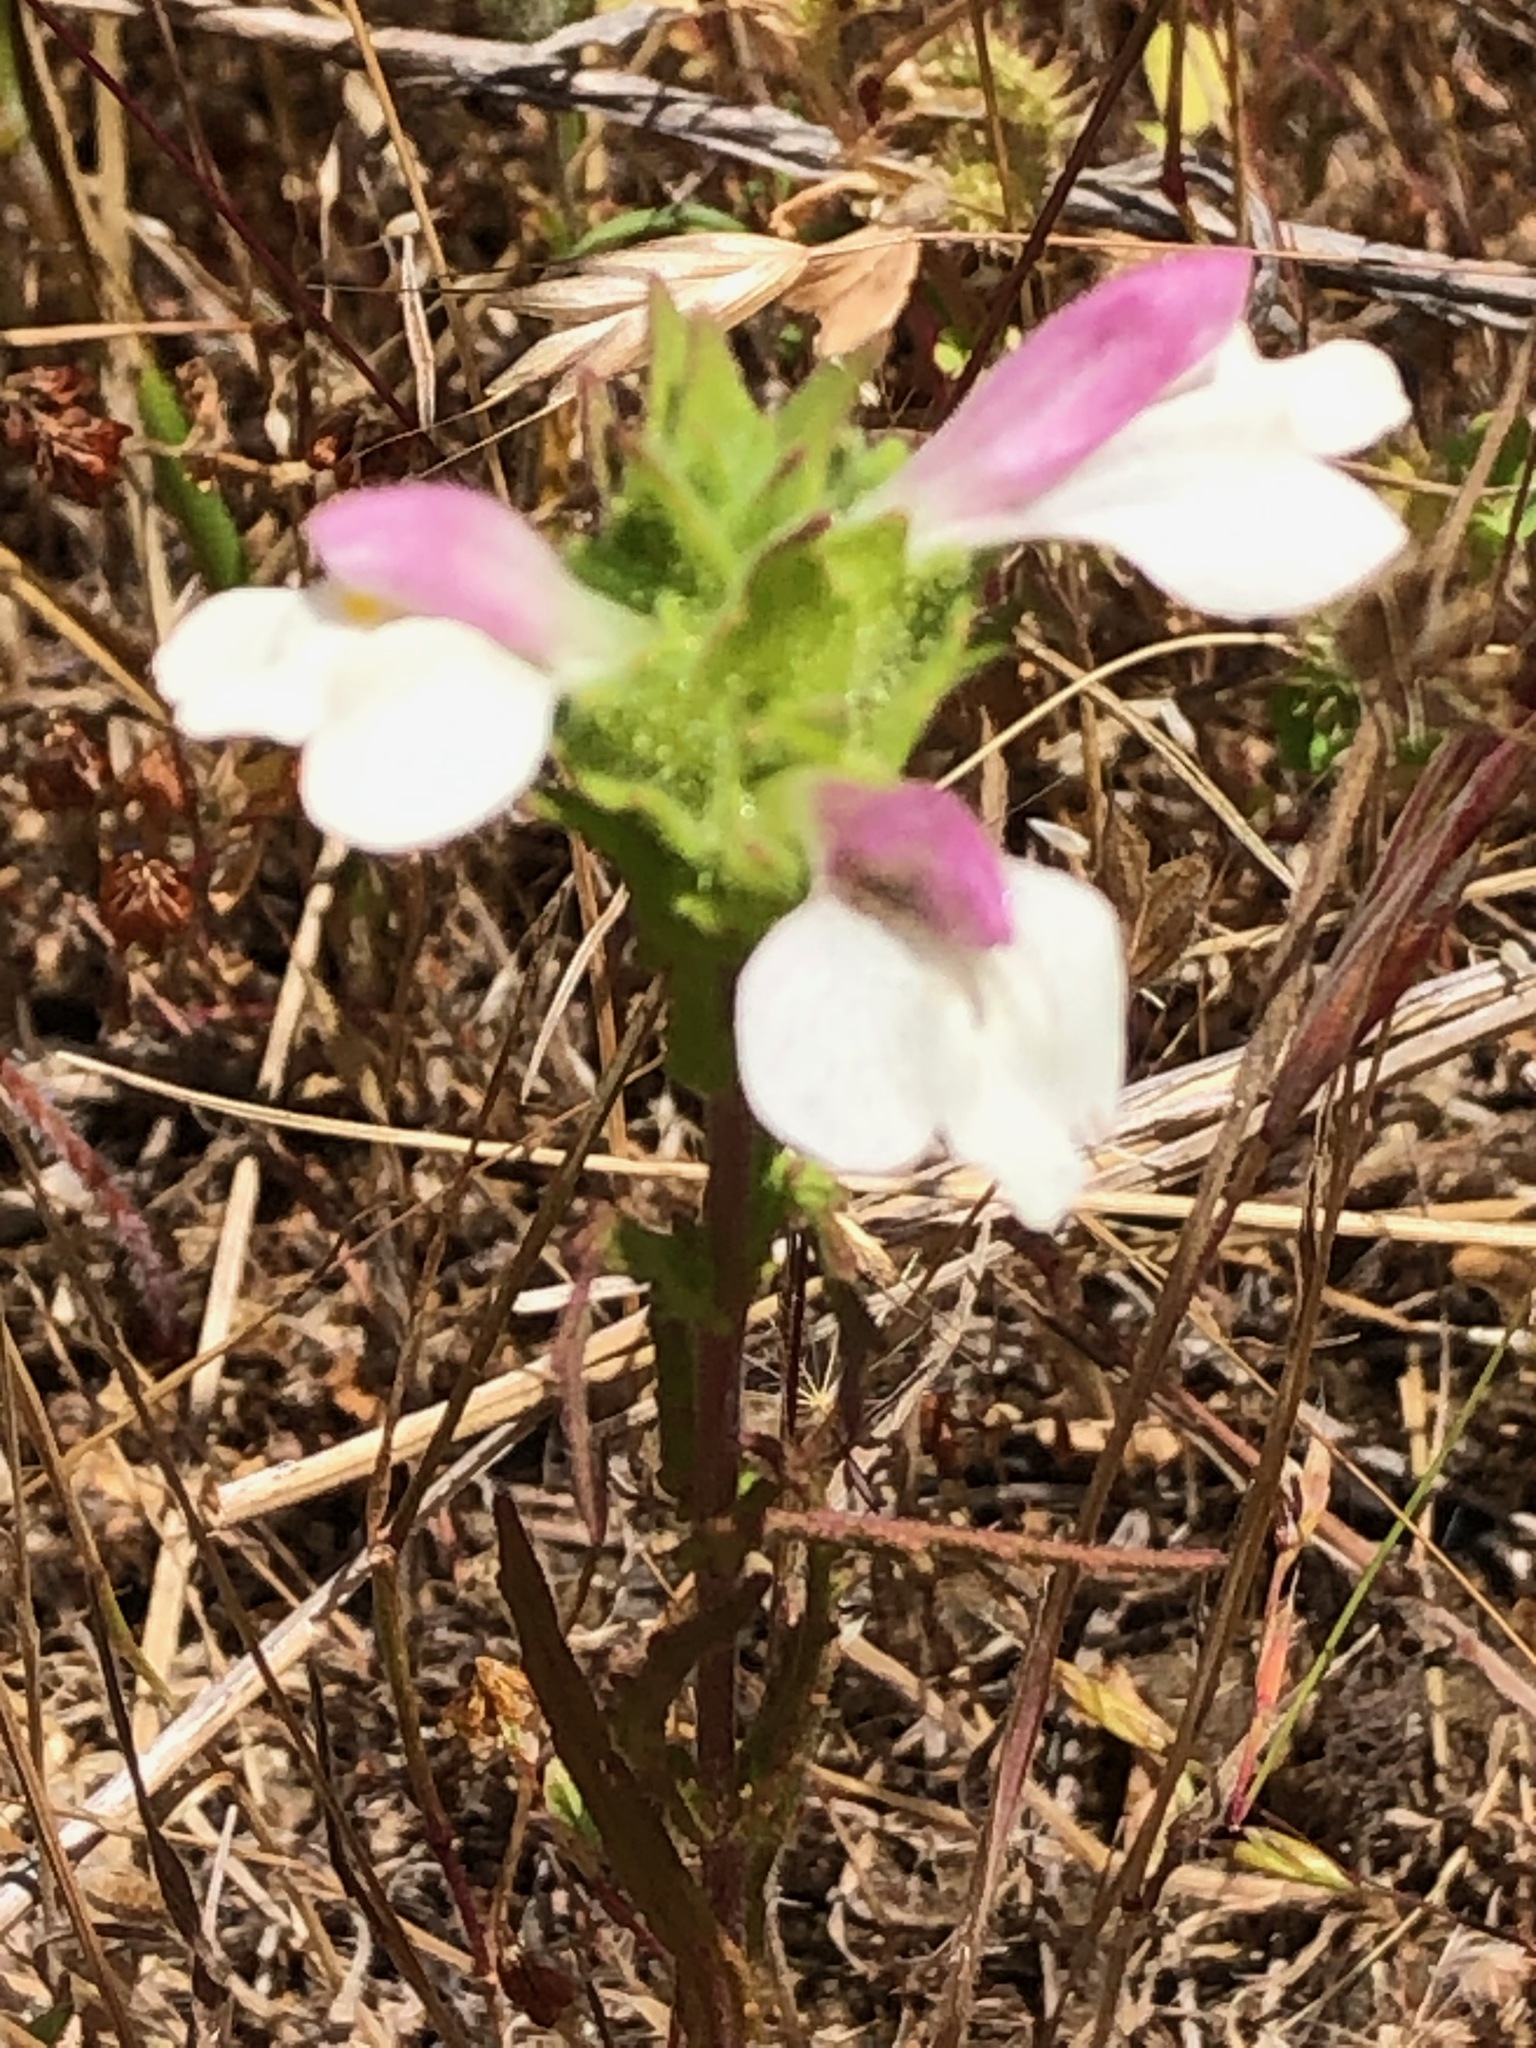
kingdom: Plantae
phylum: Tracheophyta
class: Magnoliopsida
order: Lamiales
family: Orobanchaceae
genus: Bellardia
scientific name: Bellardia trixago
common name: Mediterranean lineseed
